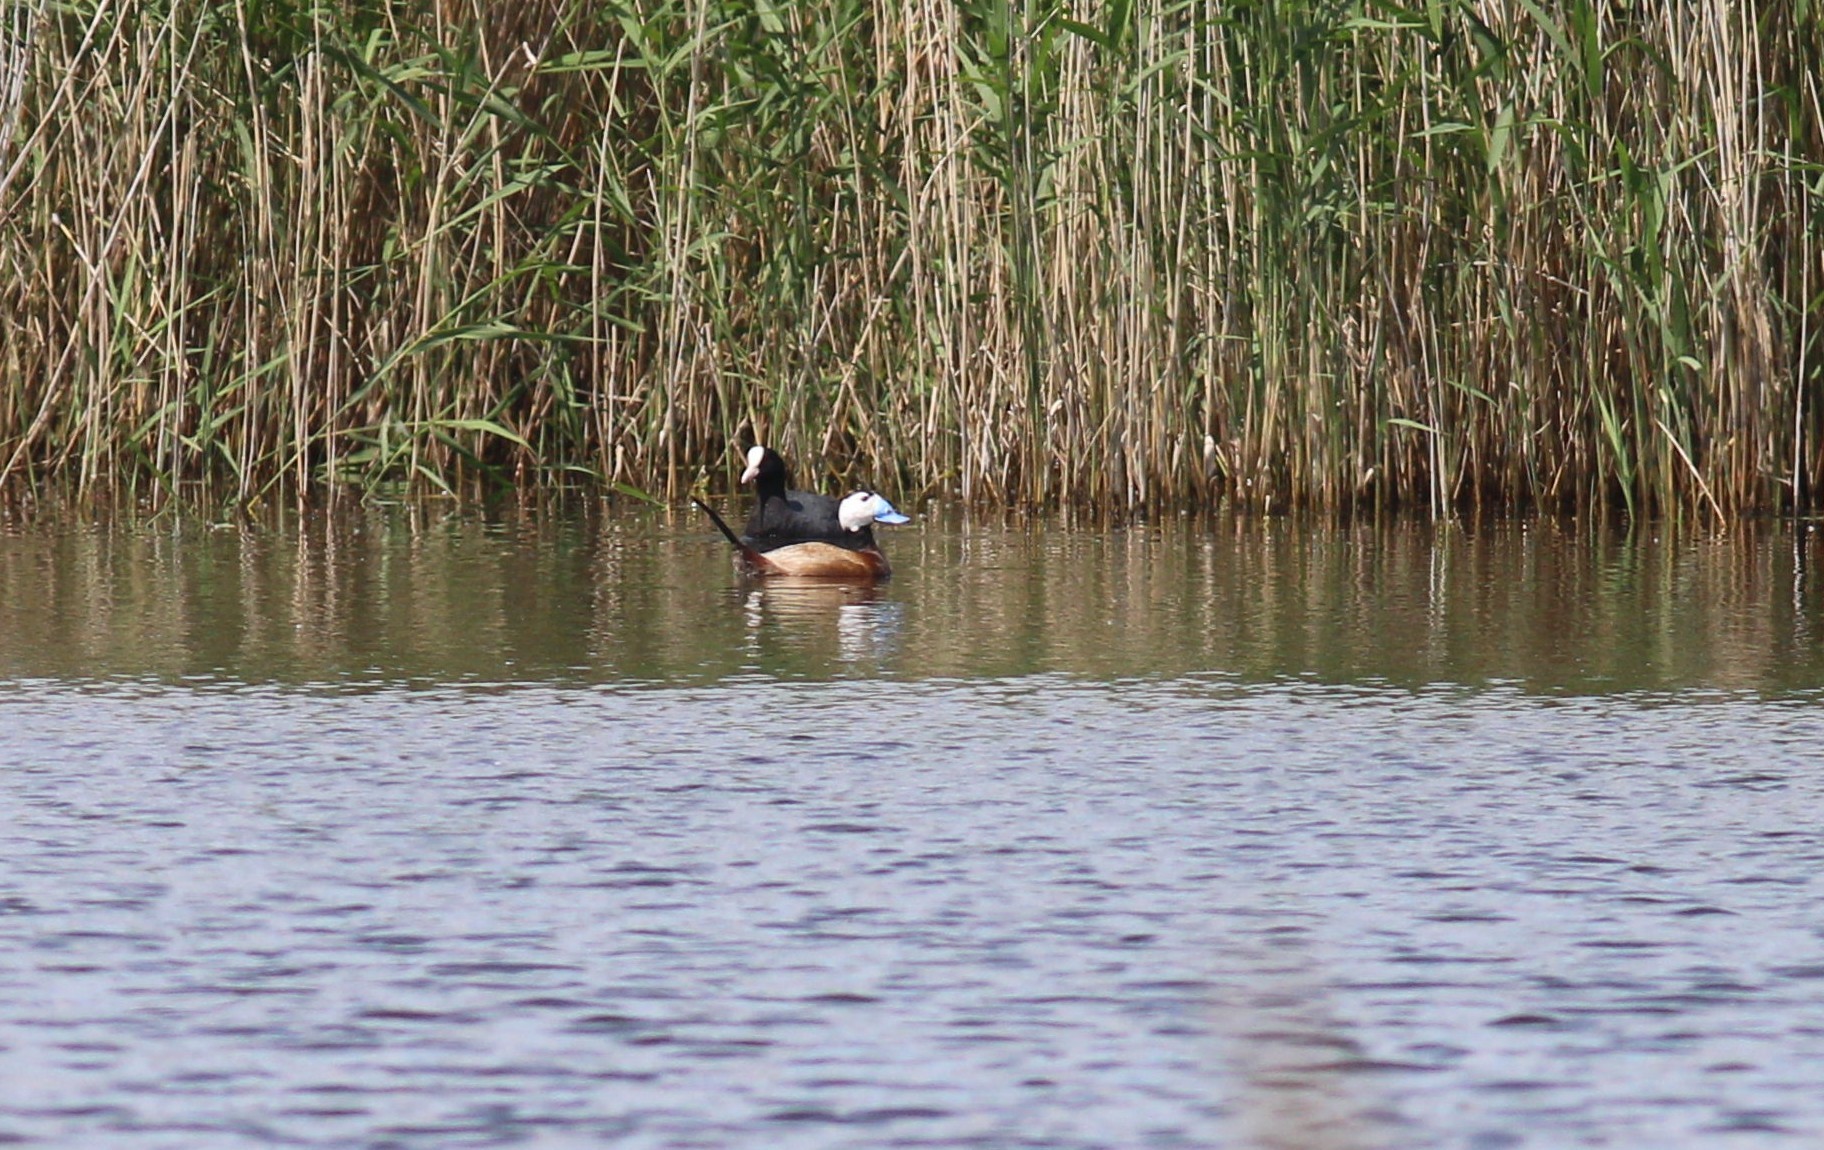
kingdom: Animalia
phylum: Chordata
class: Aves
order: Anseriformes
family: Anatidae
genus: Oxyura
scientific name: Oxyura leucocephala
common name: White-headed duck
